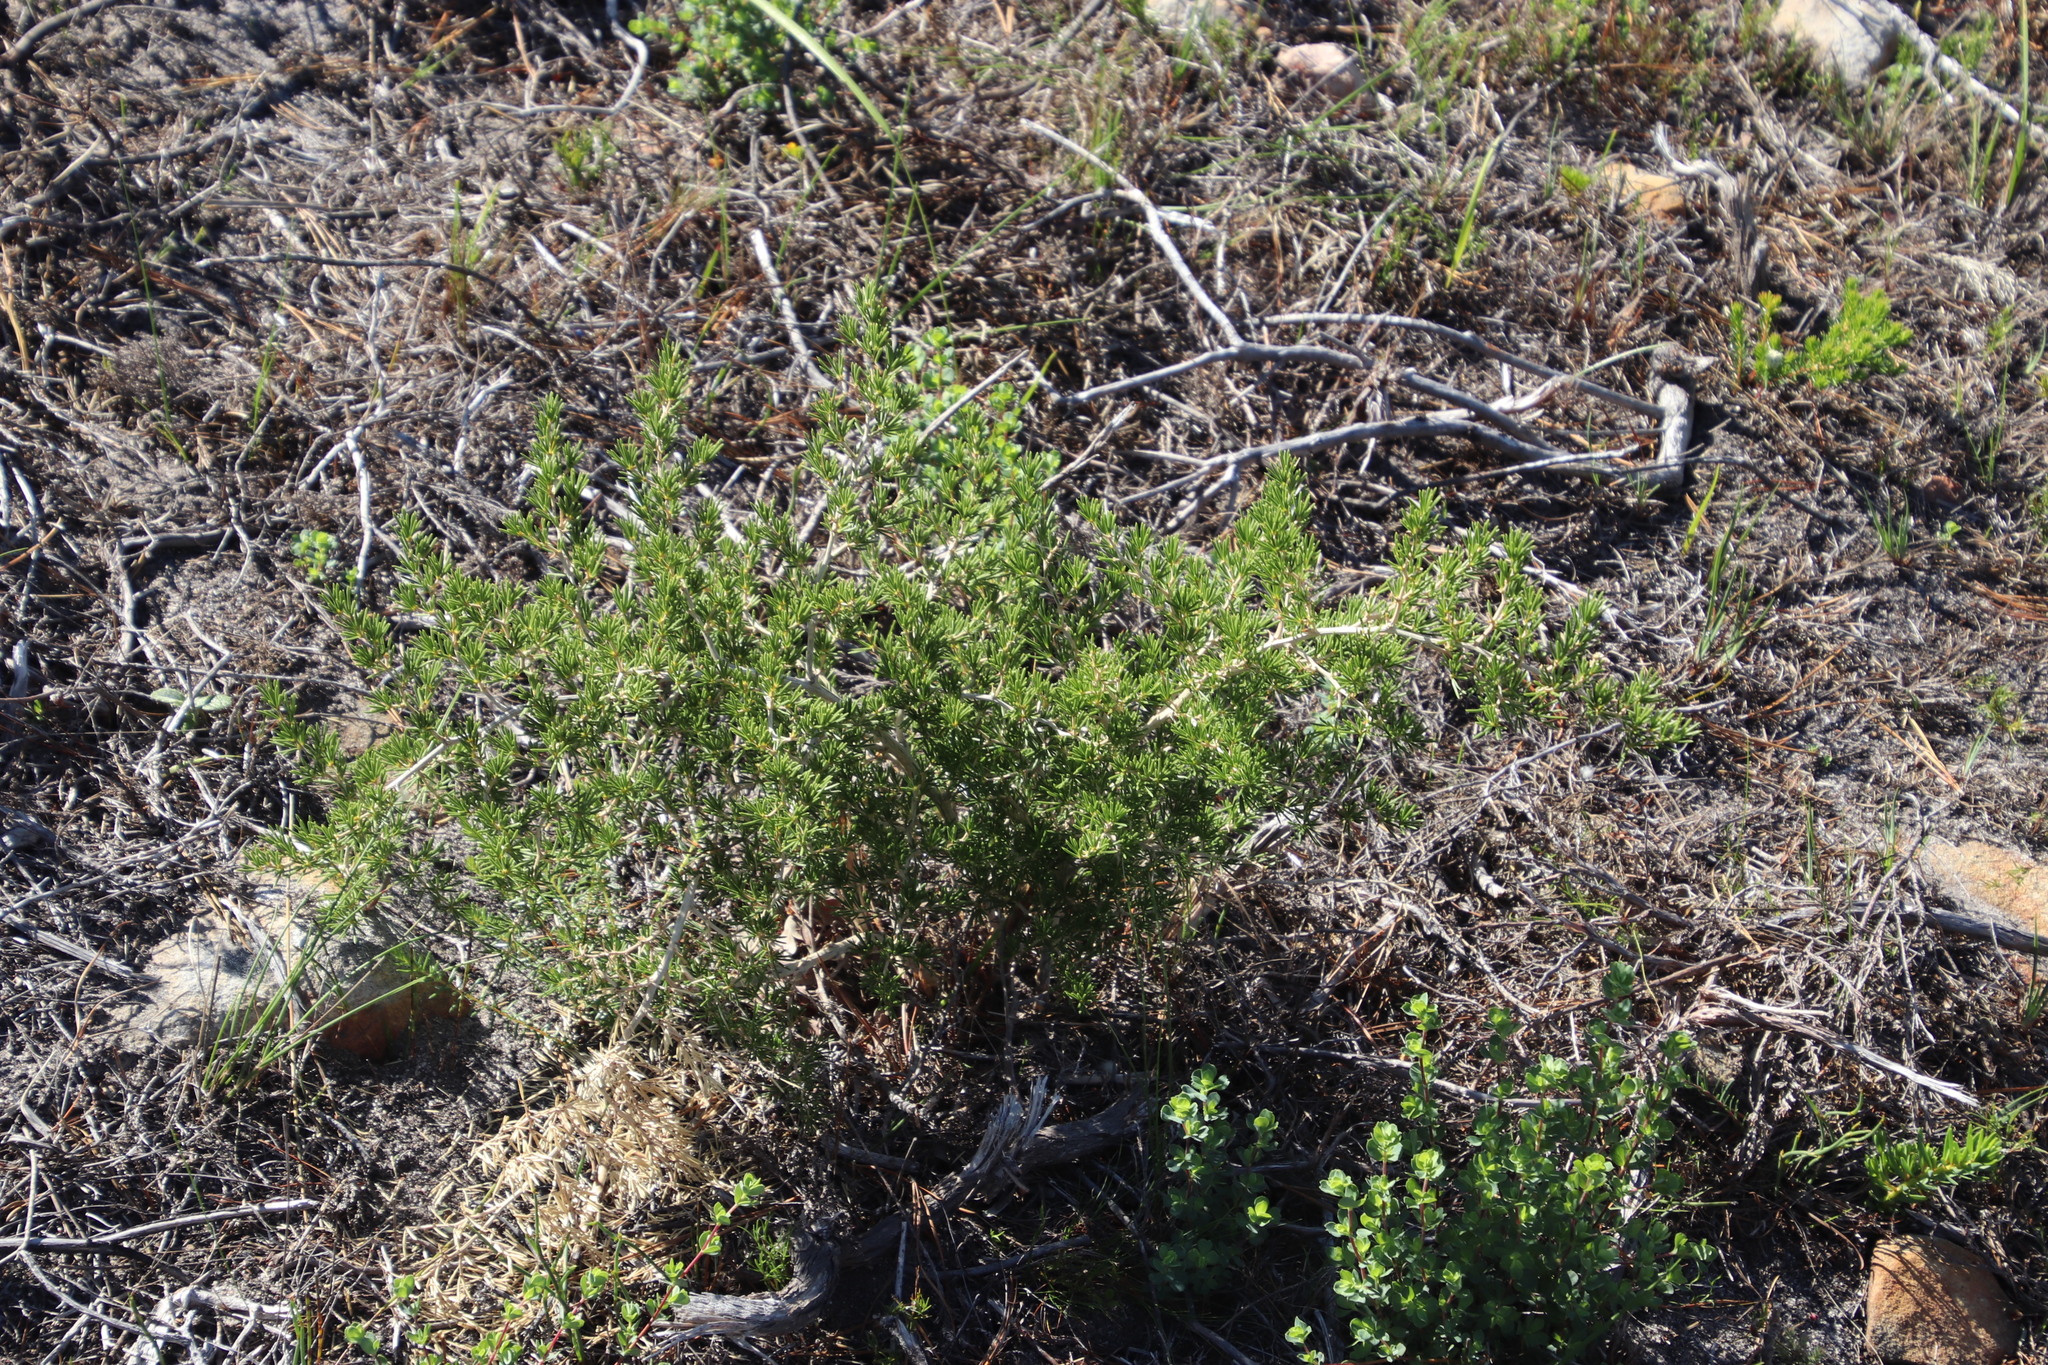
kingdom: Plantae
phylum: Tracheophyta
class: Liliopsida
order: Asparagales
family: Asparagaceae
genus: Asparagus
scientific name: Asparagus lignosus
